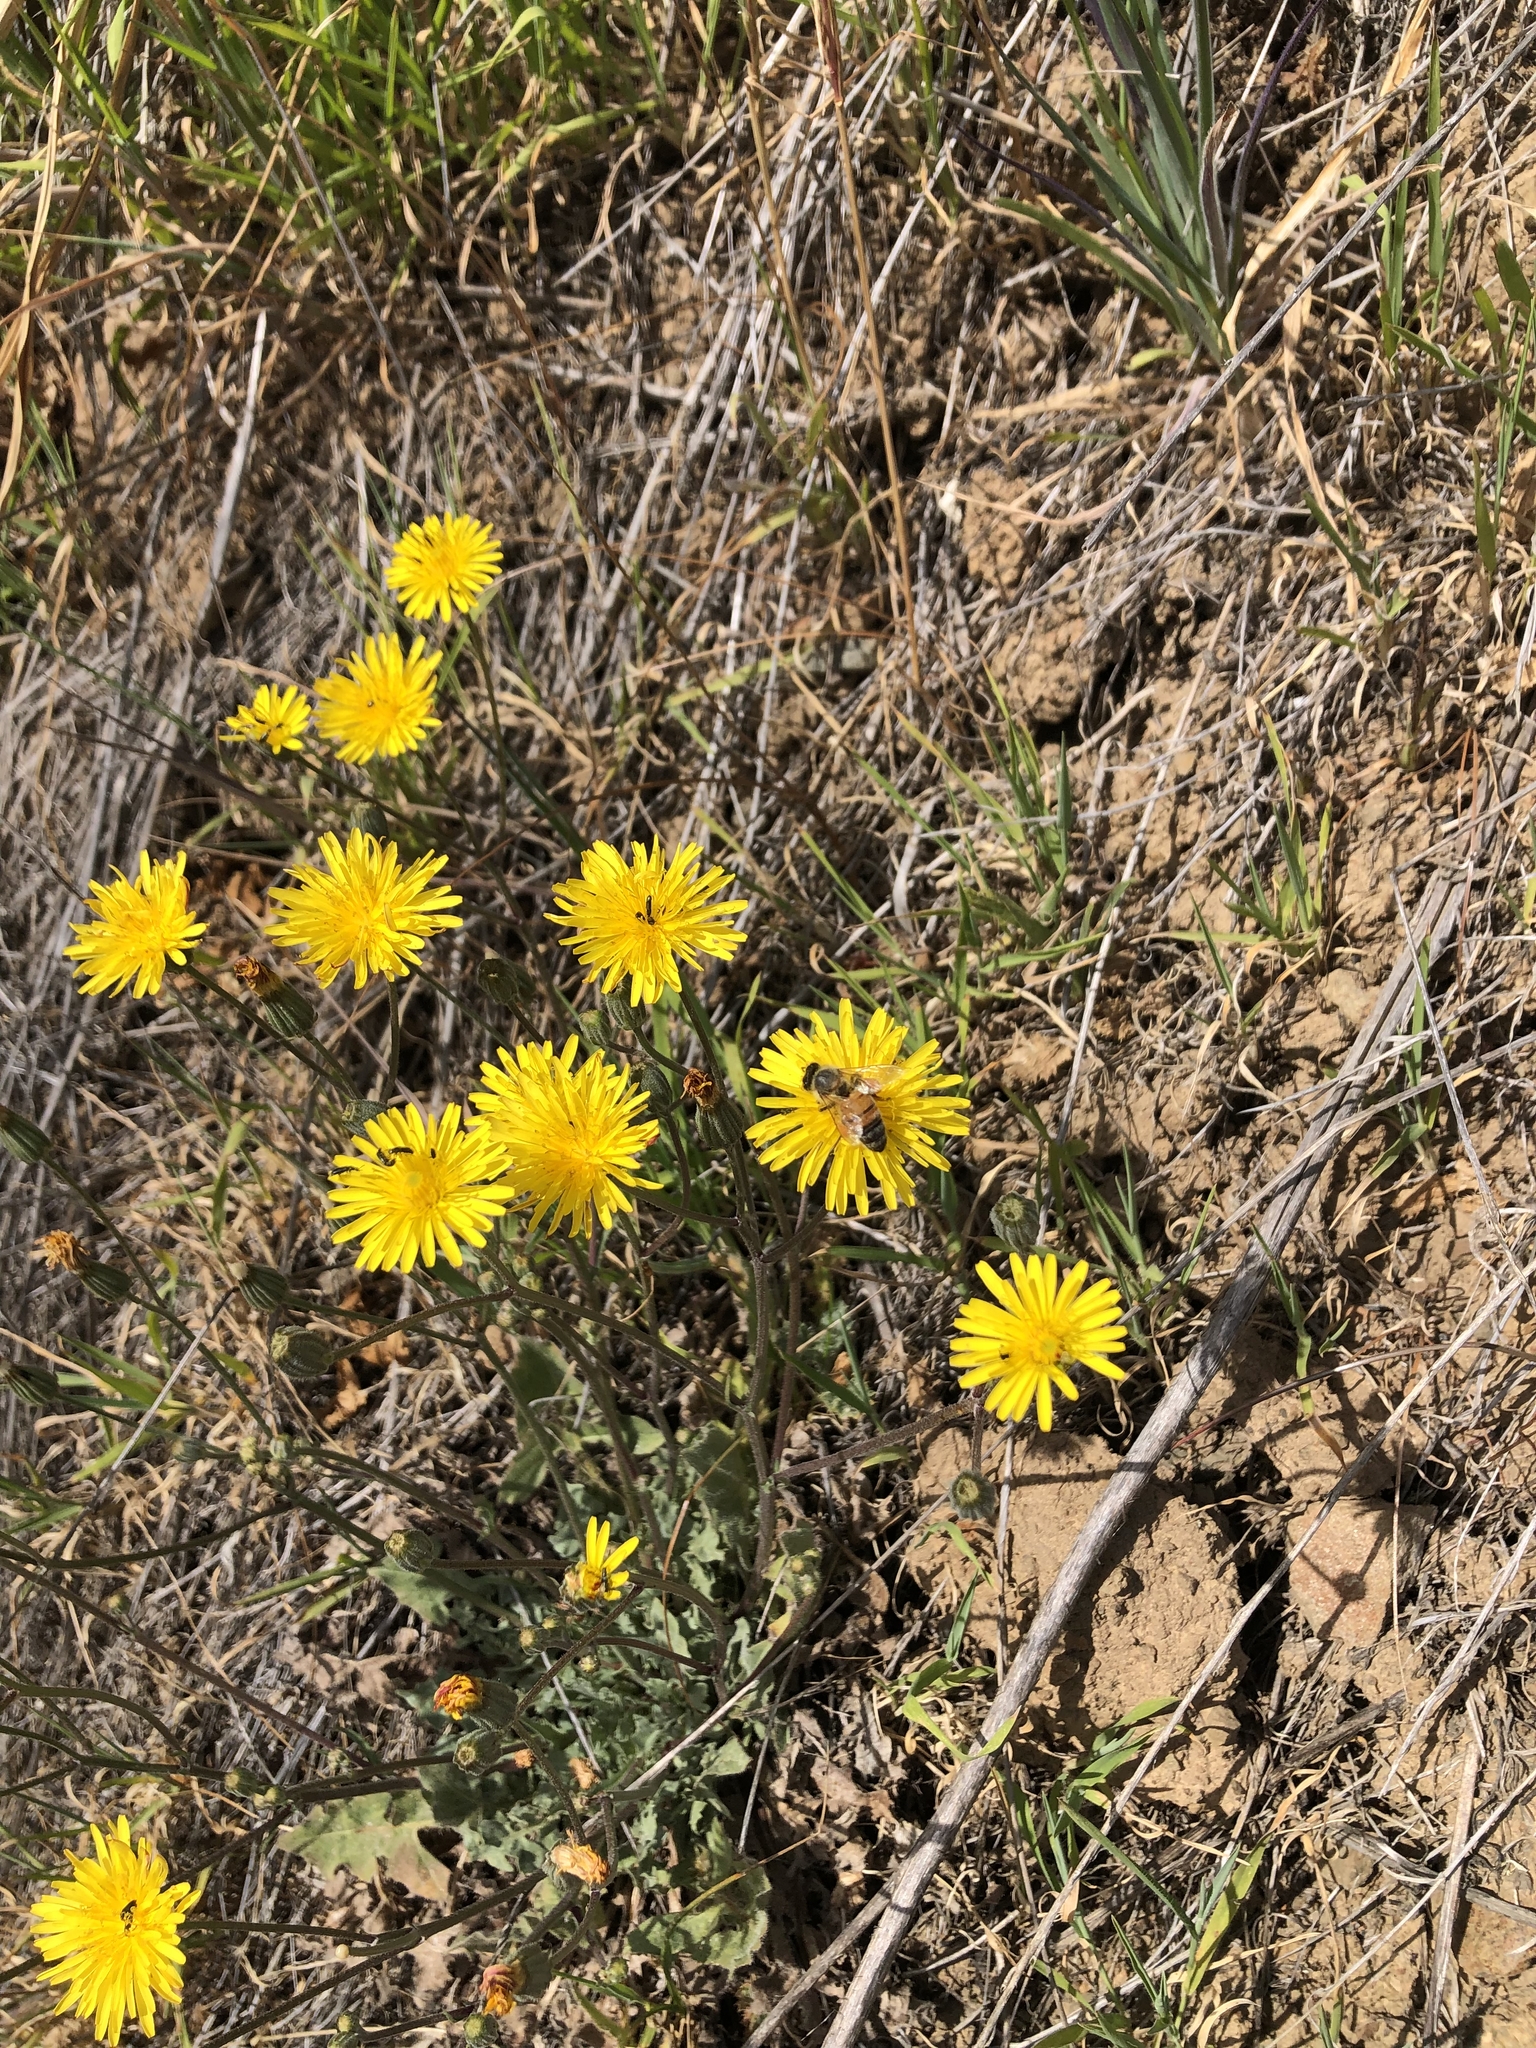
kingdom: Animalia
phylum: Arthropoda
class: Insecta
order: Hymenoptera
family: Apidae
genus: Apis
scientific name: Apis mellifera
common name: Honey bee
